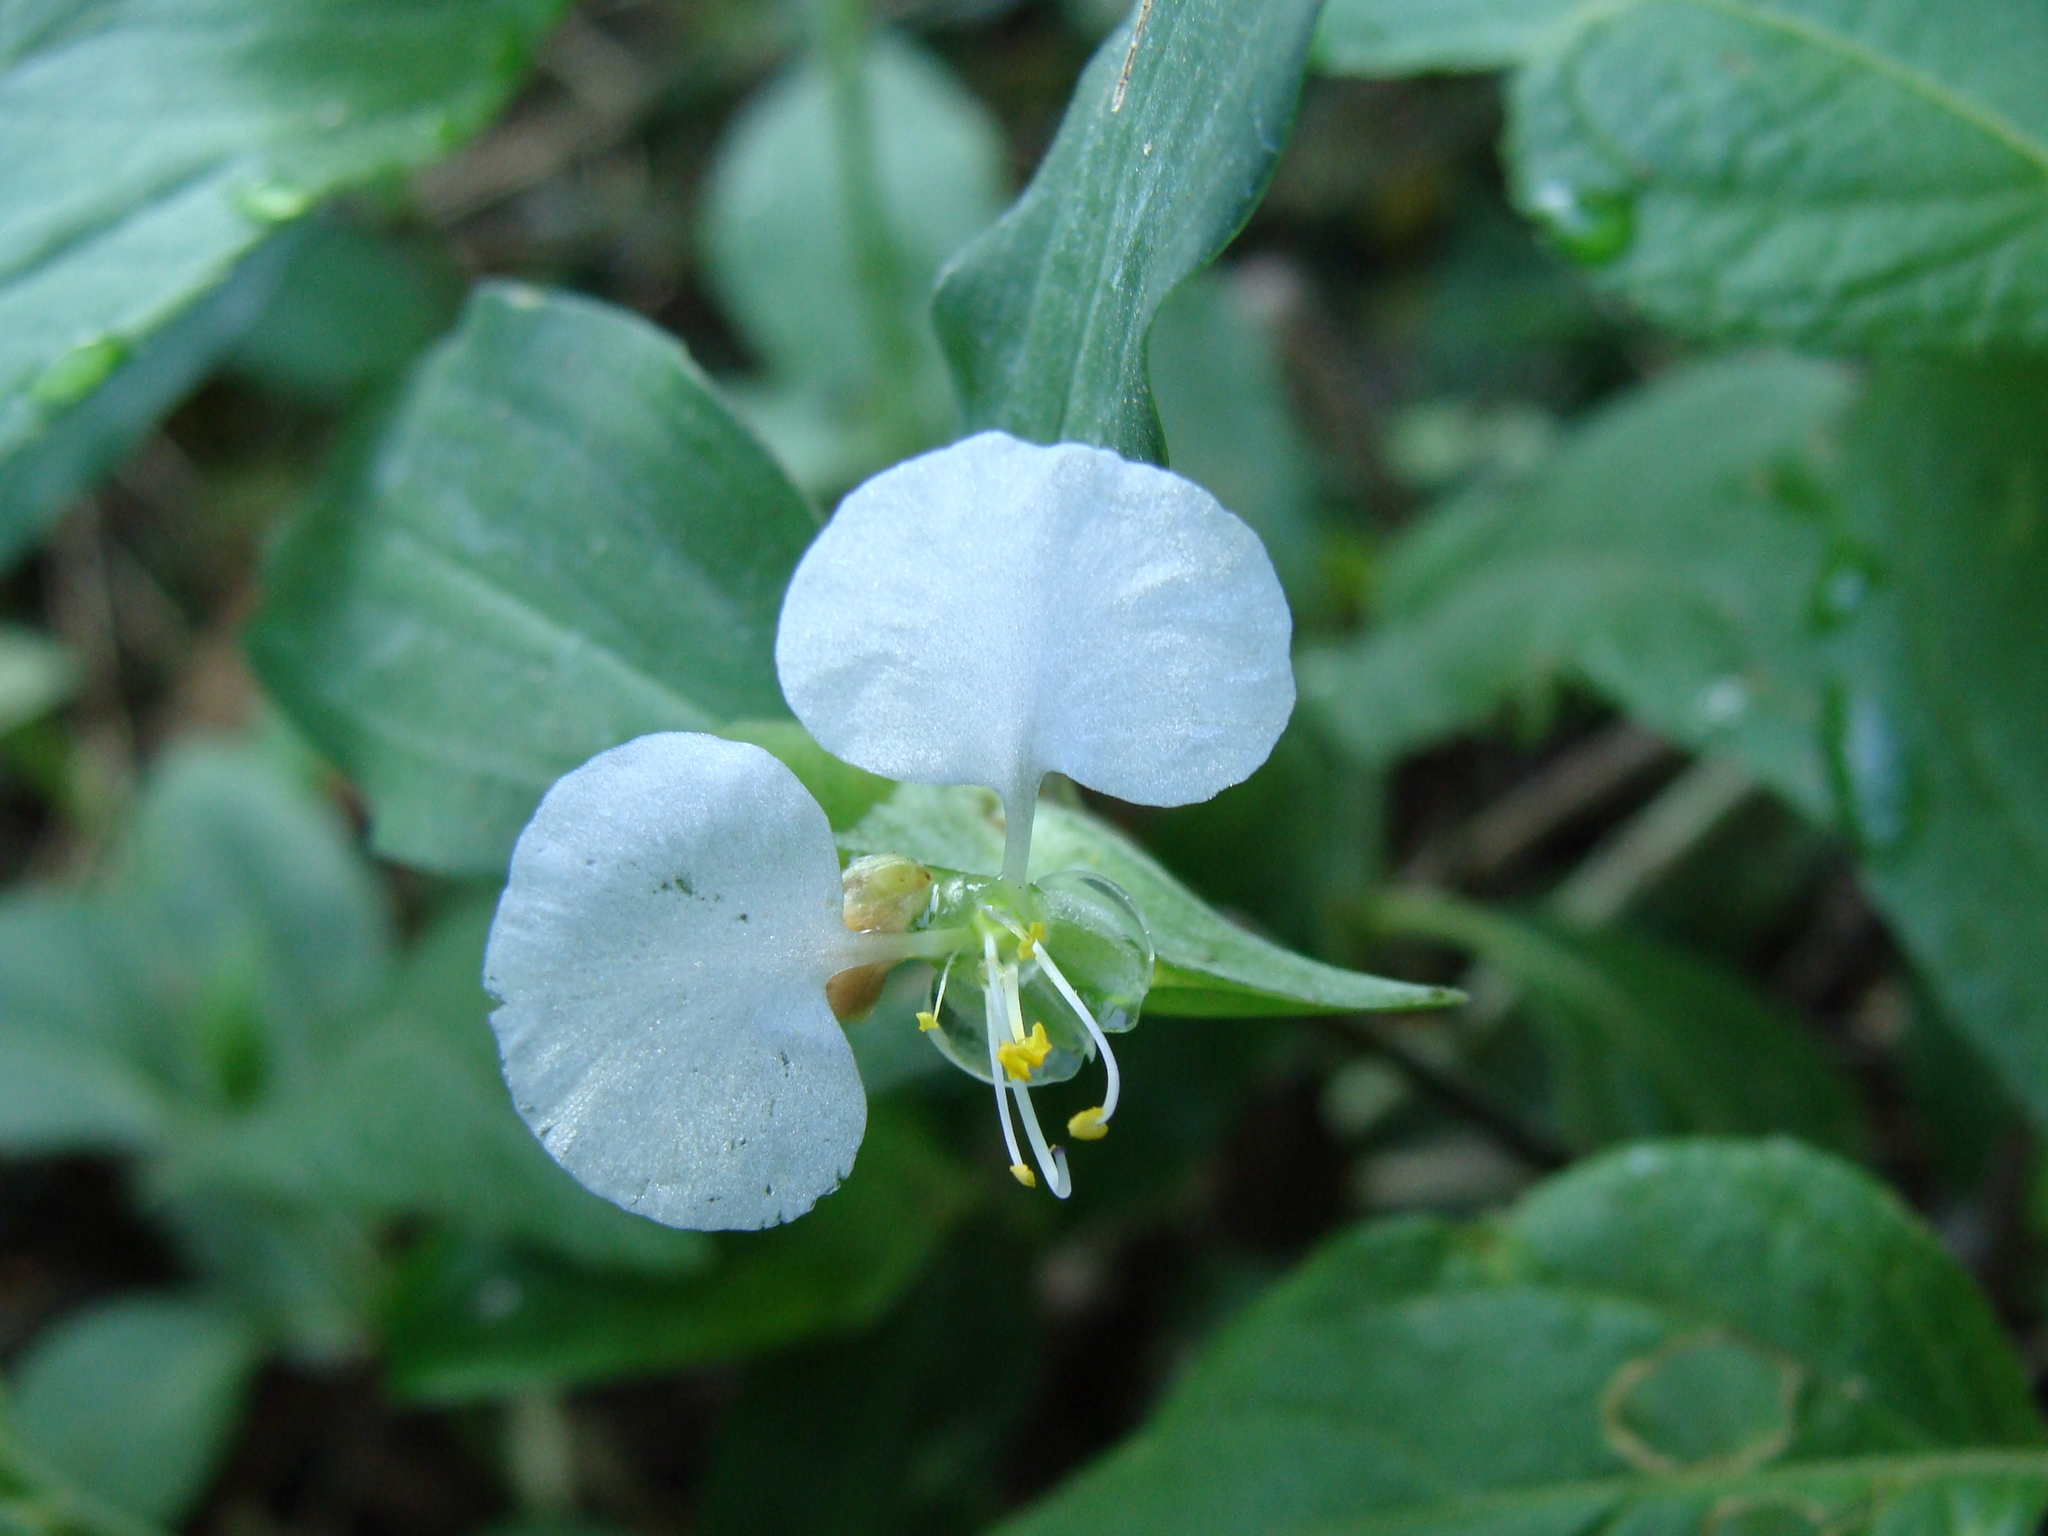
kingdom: Plantae
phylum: Tracheophyta
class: Liliopsida
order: Commelinales
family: Commelinaceae
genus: Commelina
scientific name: Commelina erecta
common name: Blousel blommetjie
